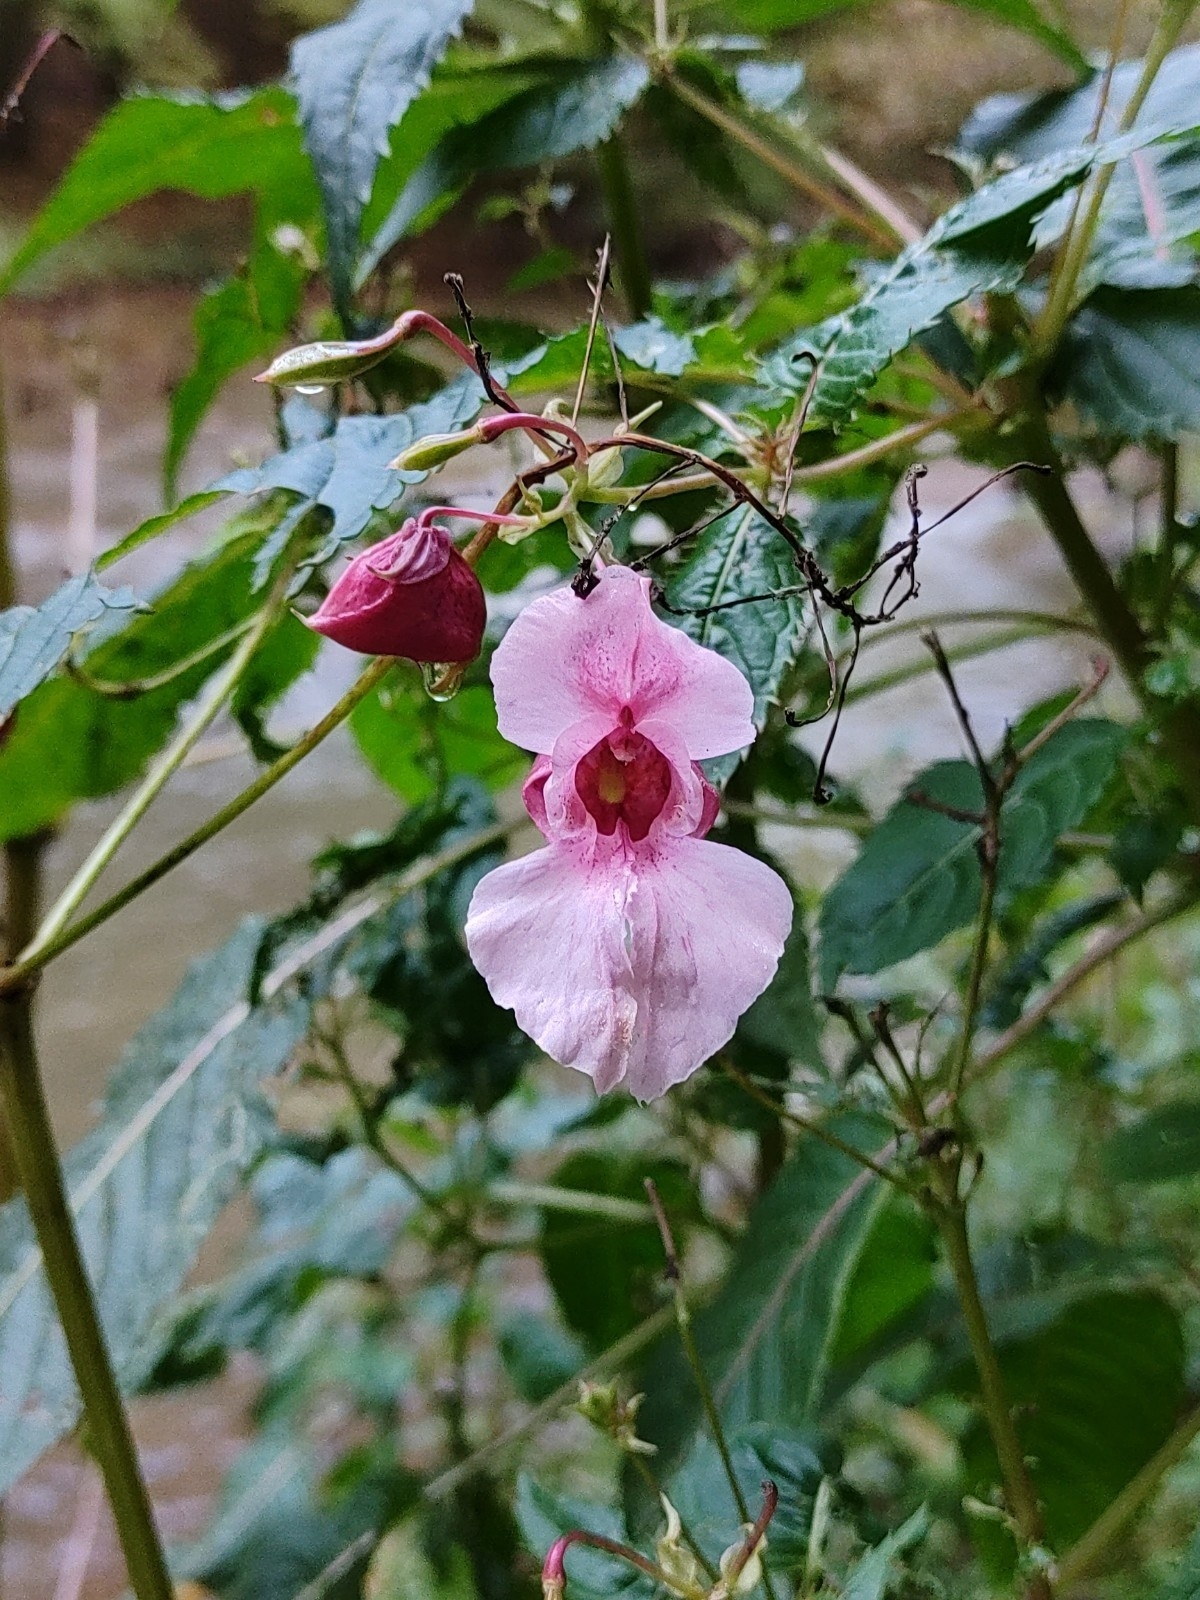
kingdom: Plantae
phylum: Tracheophyta
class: Magnoliopsida
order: Ericales
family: Balsaminaceae
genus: Impatiens
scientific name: Impatiens glandulifera
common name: Himalayan balsam
